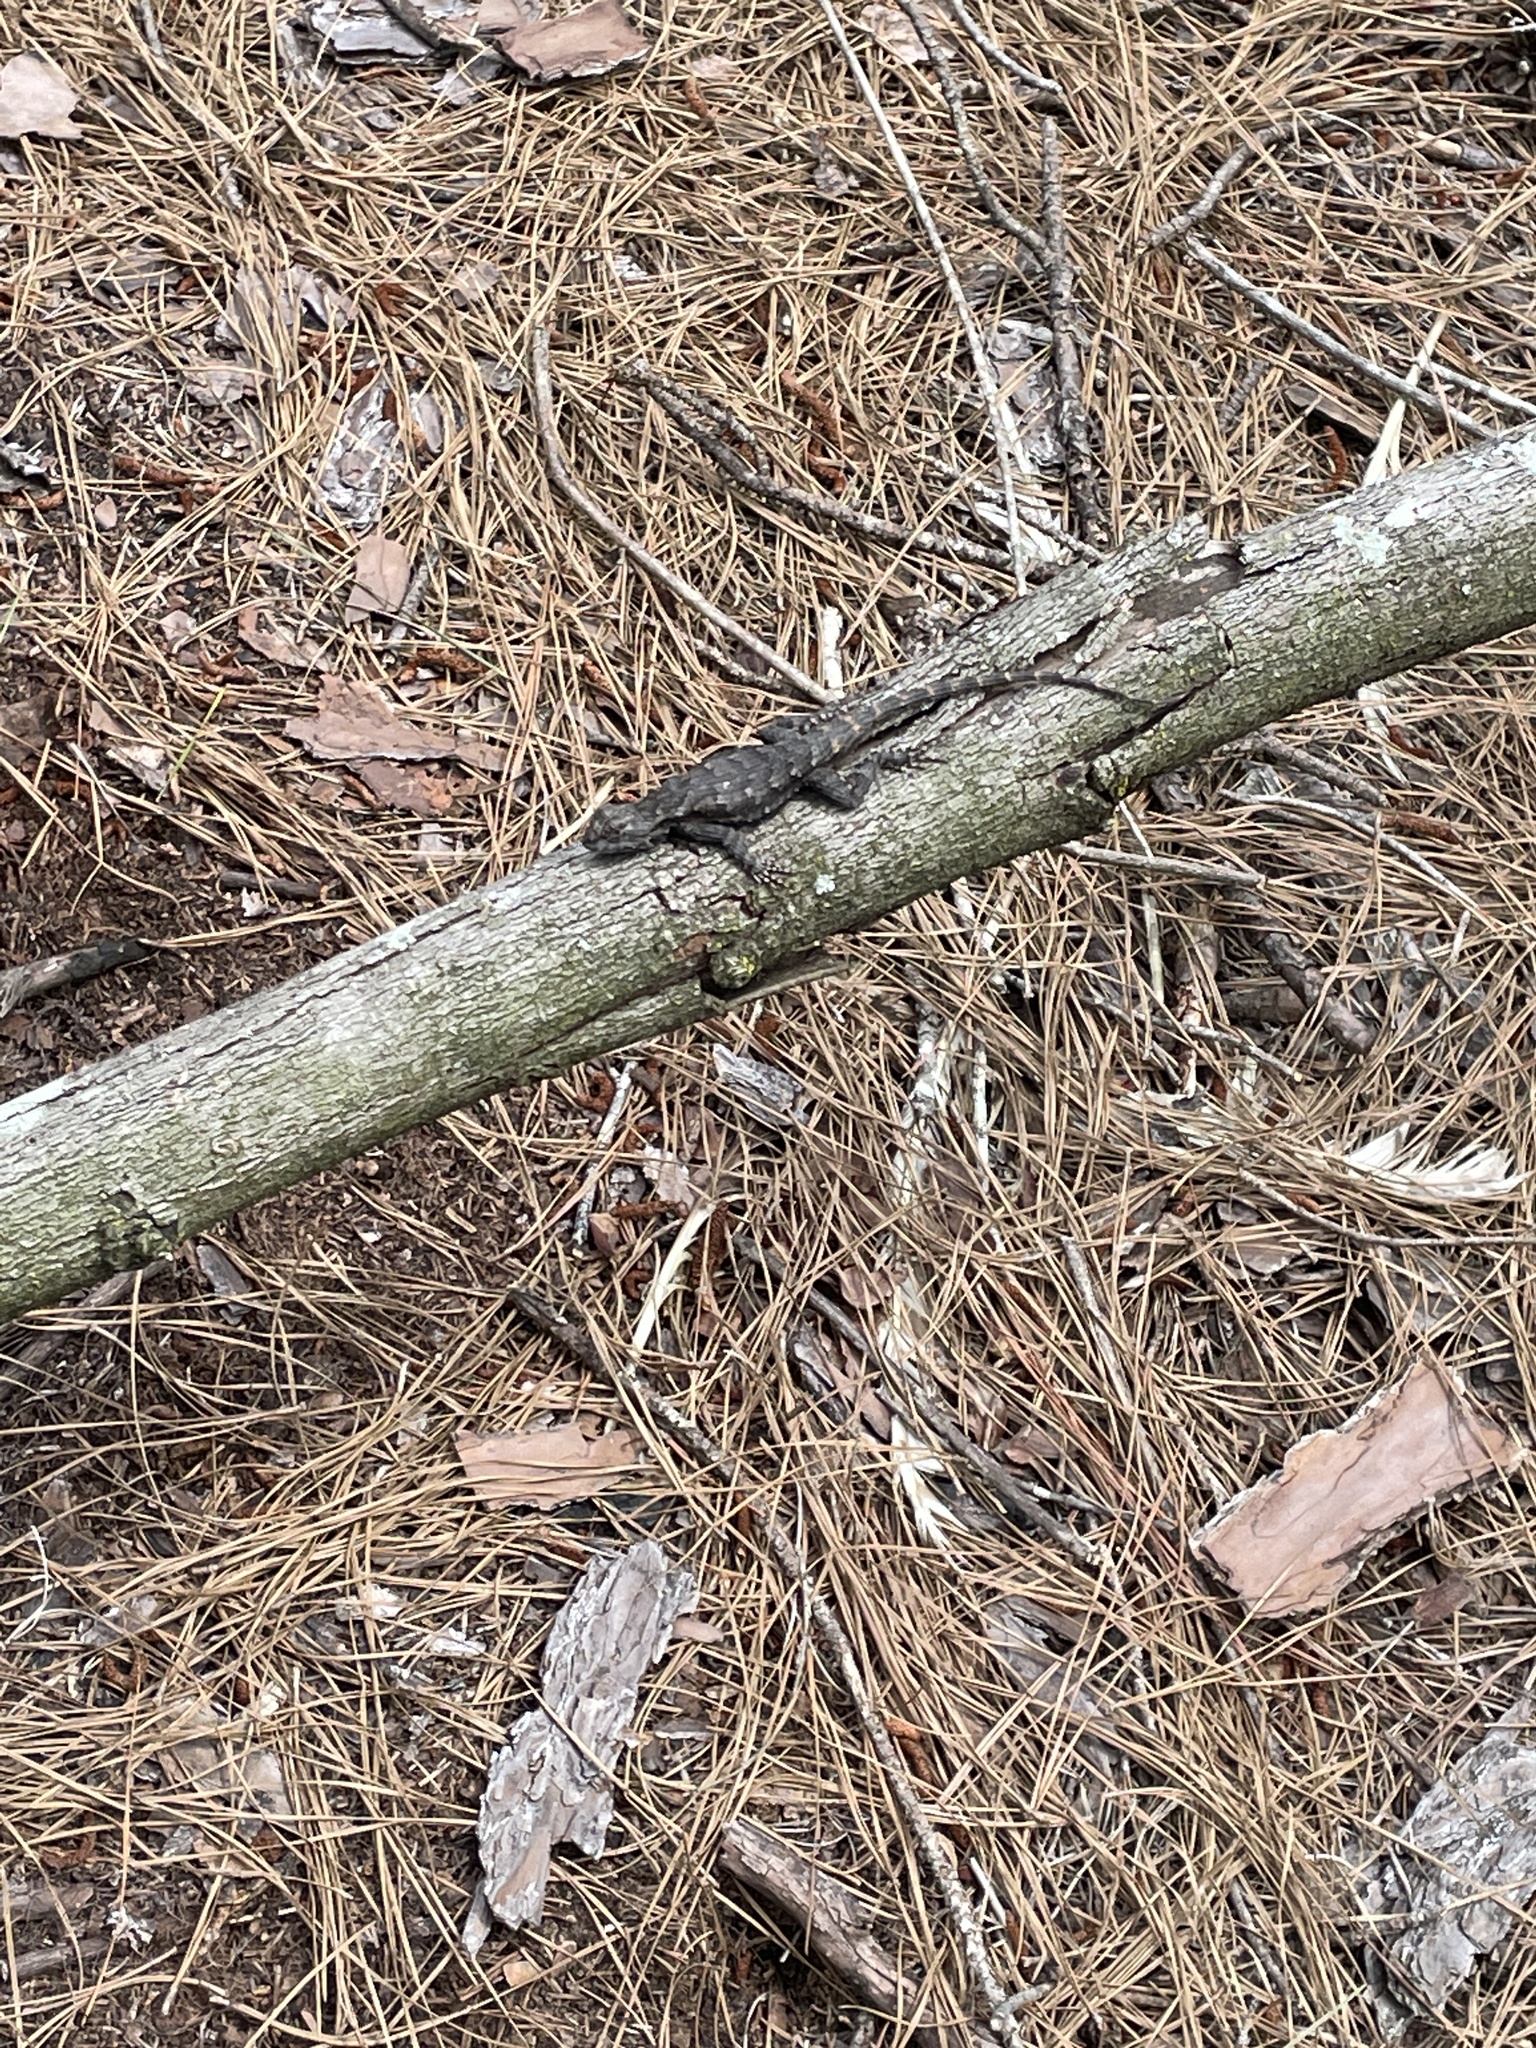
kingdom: Animalia
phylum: Chordata
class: Squamata
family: Phrynosomatidae
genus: Sceloporus
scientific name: Sceloporus undulatus
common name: Eastern fence lizard
